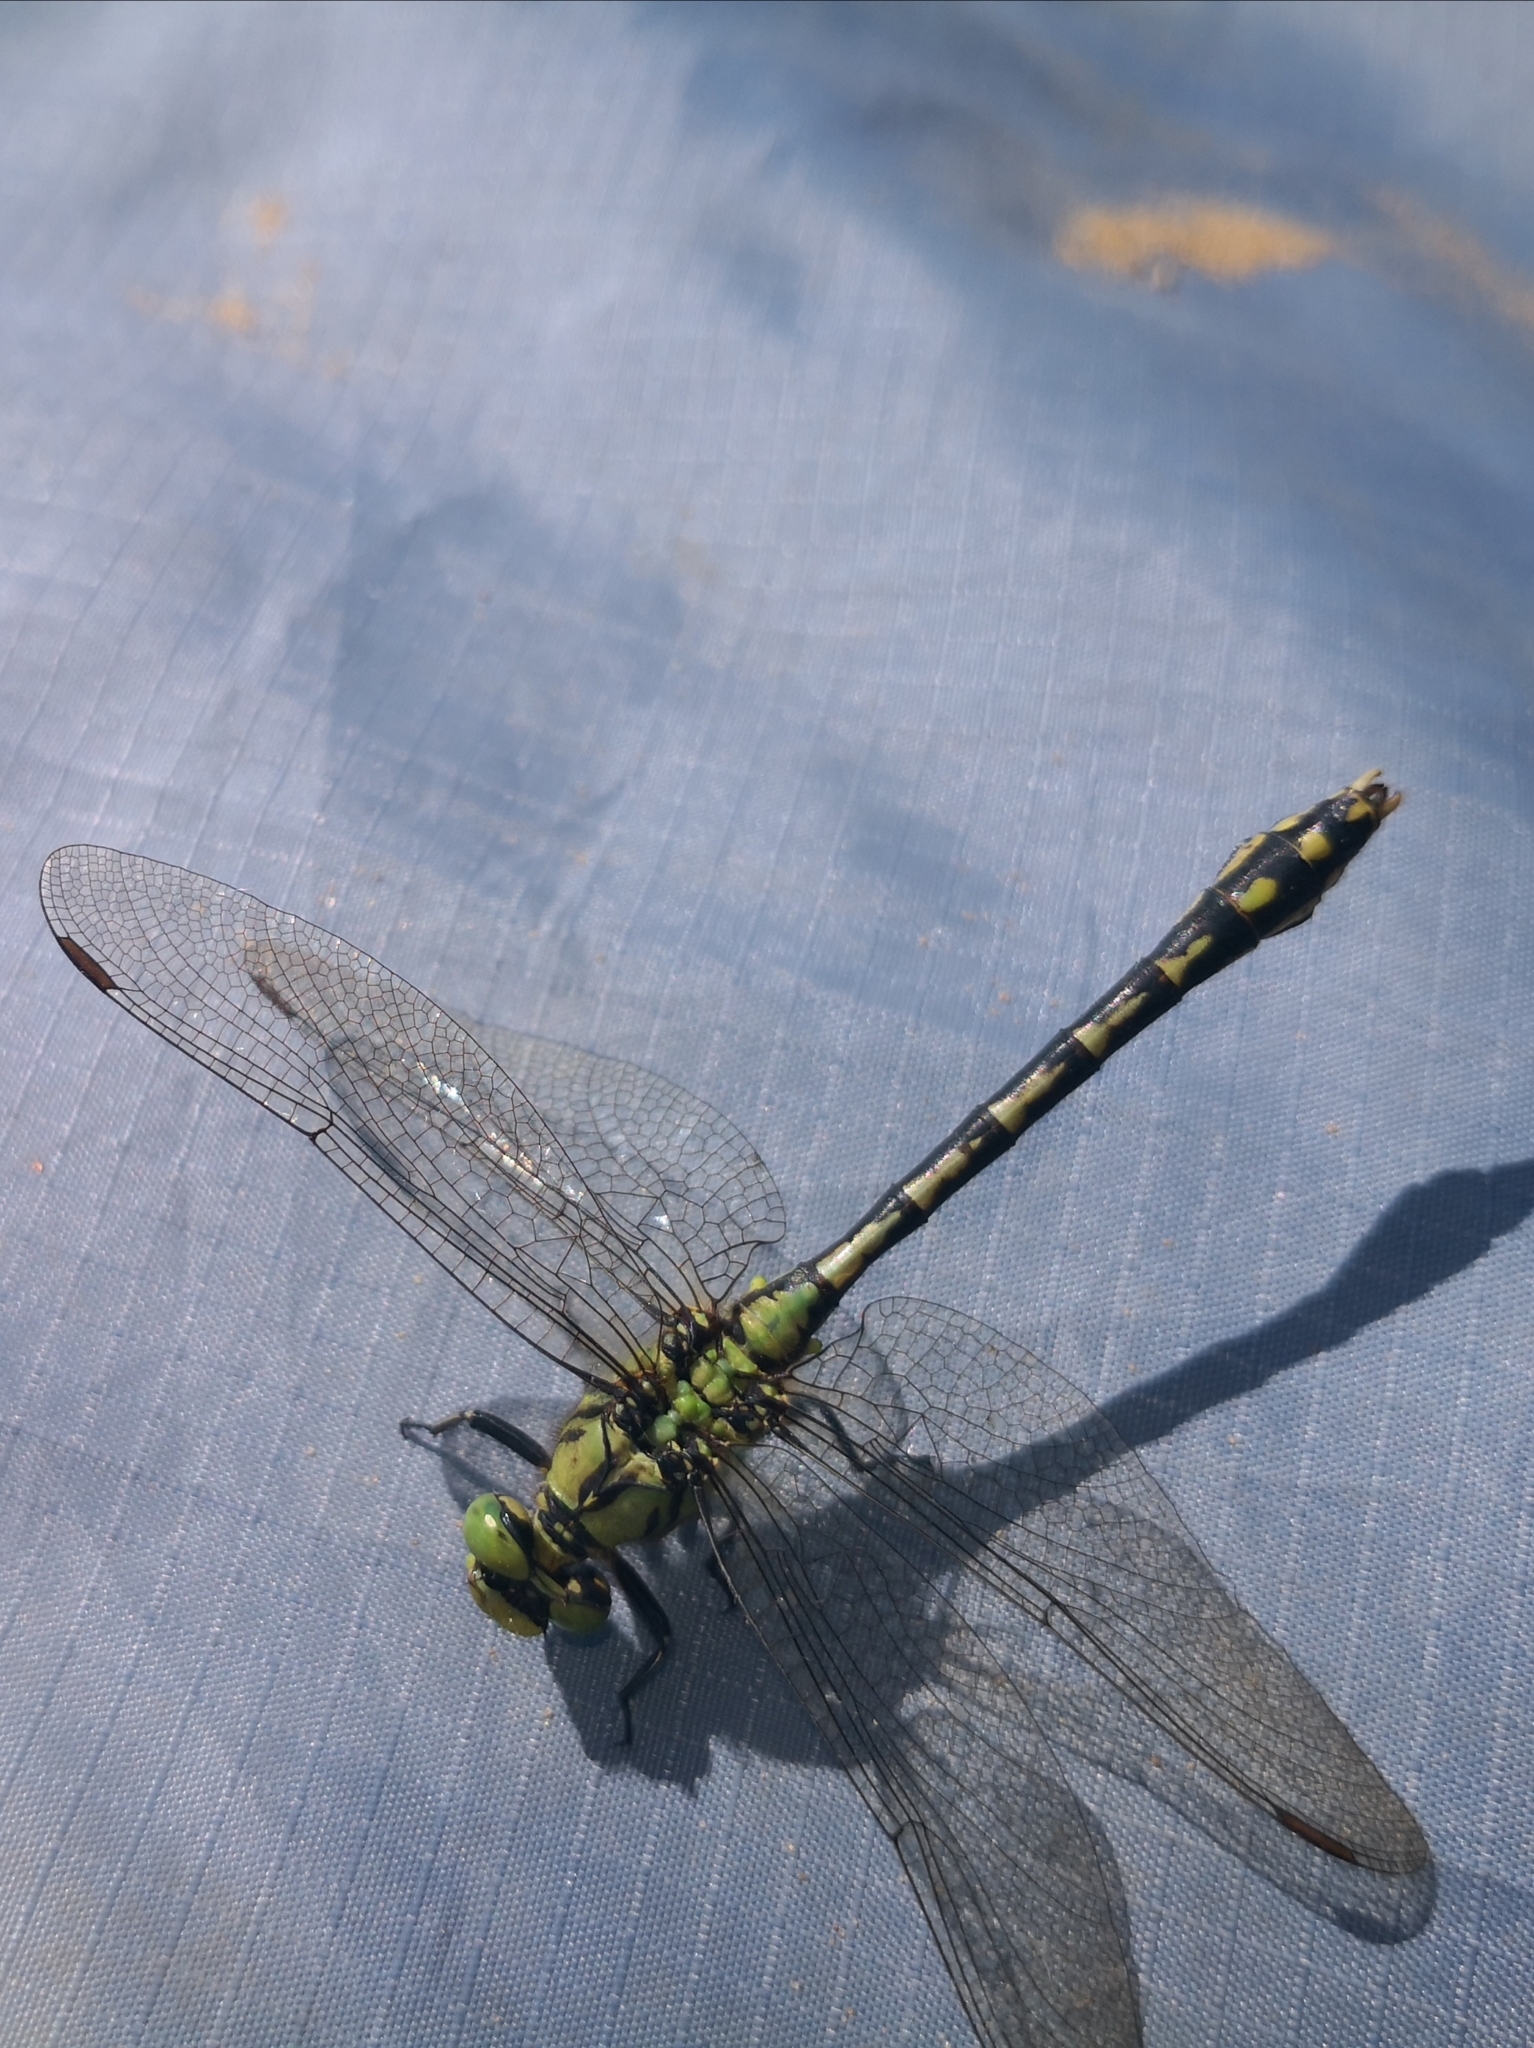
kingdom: Animalia
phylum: Arthropoda
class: Insecta
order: Odonata
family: Gomphidae
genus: Ophiogomphus
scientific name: Ophiogomphus cecilia
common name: Green snaketail
